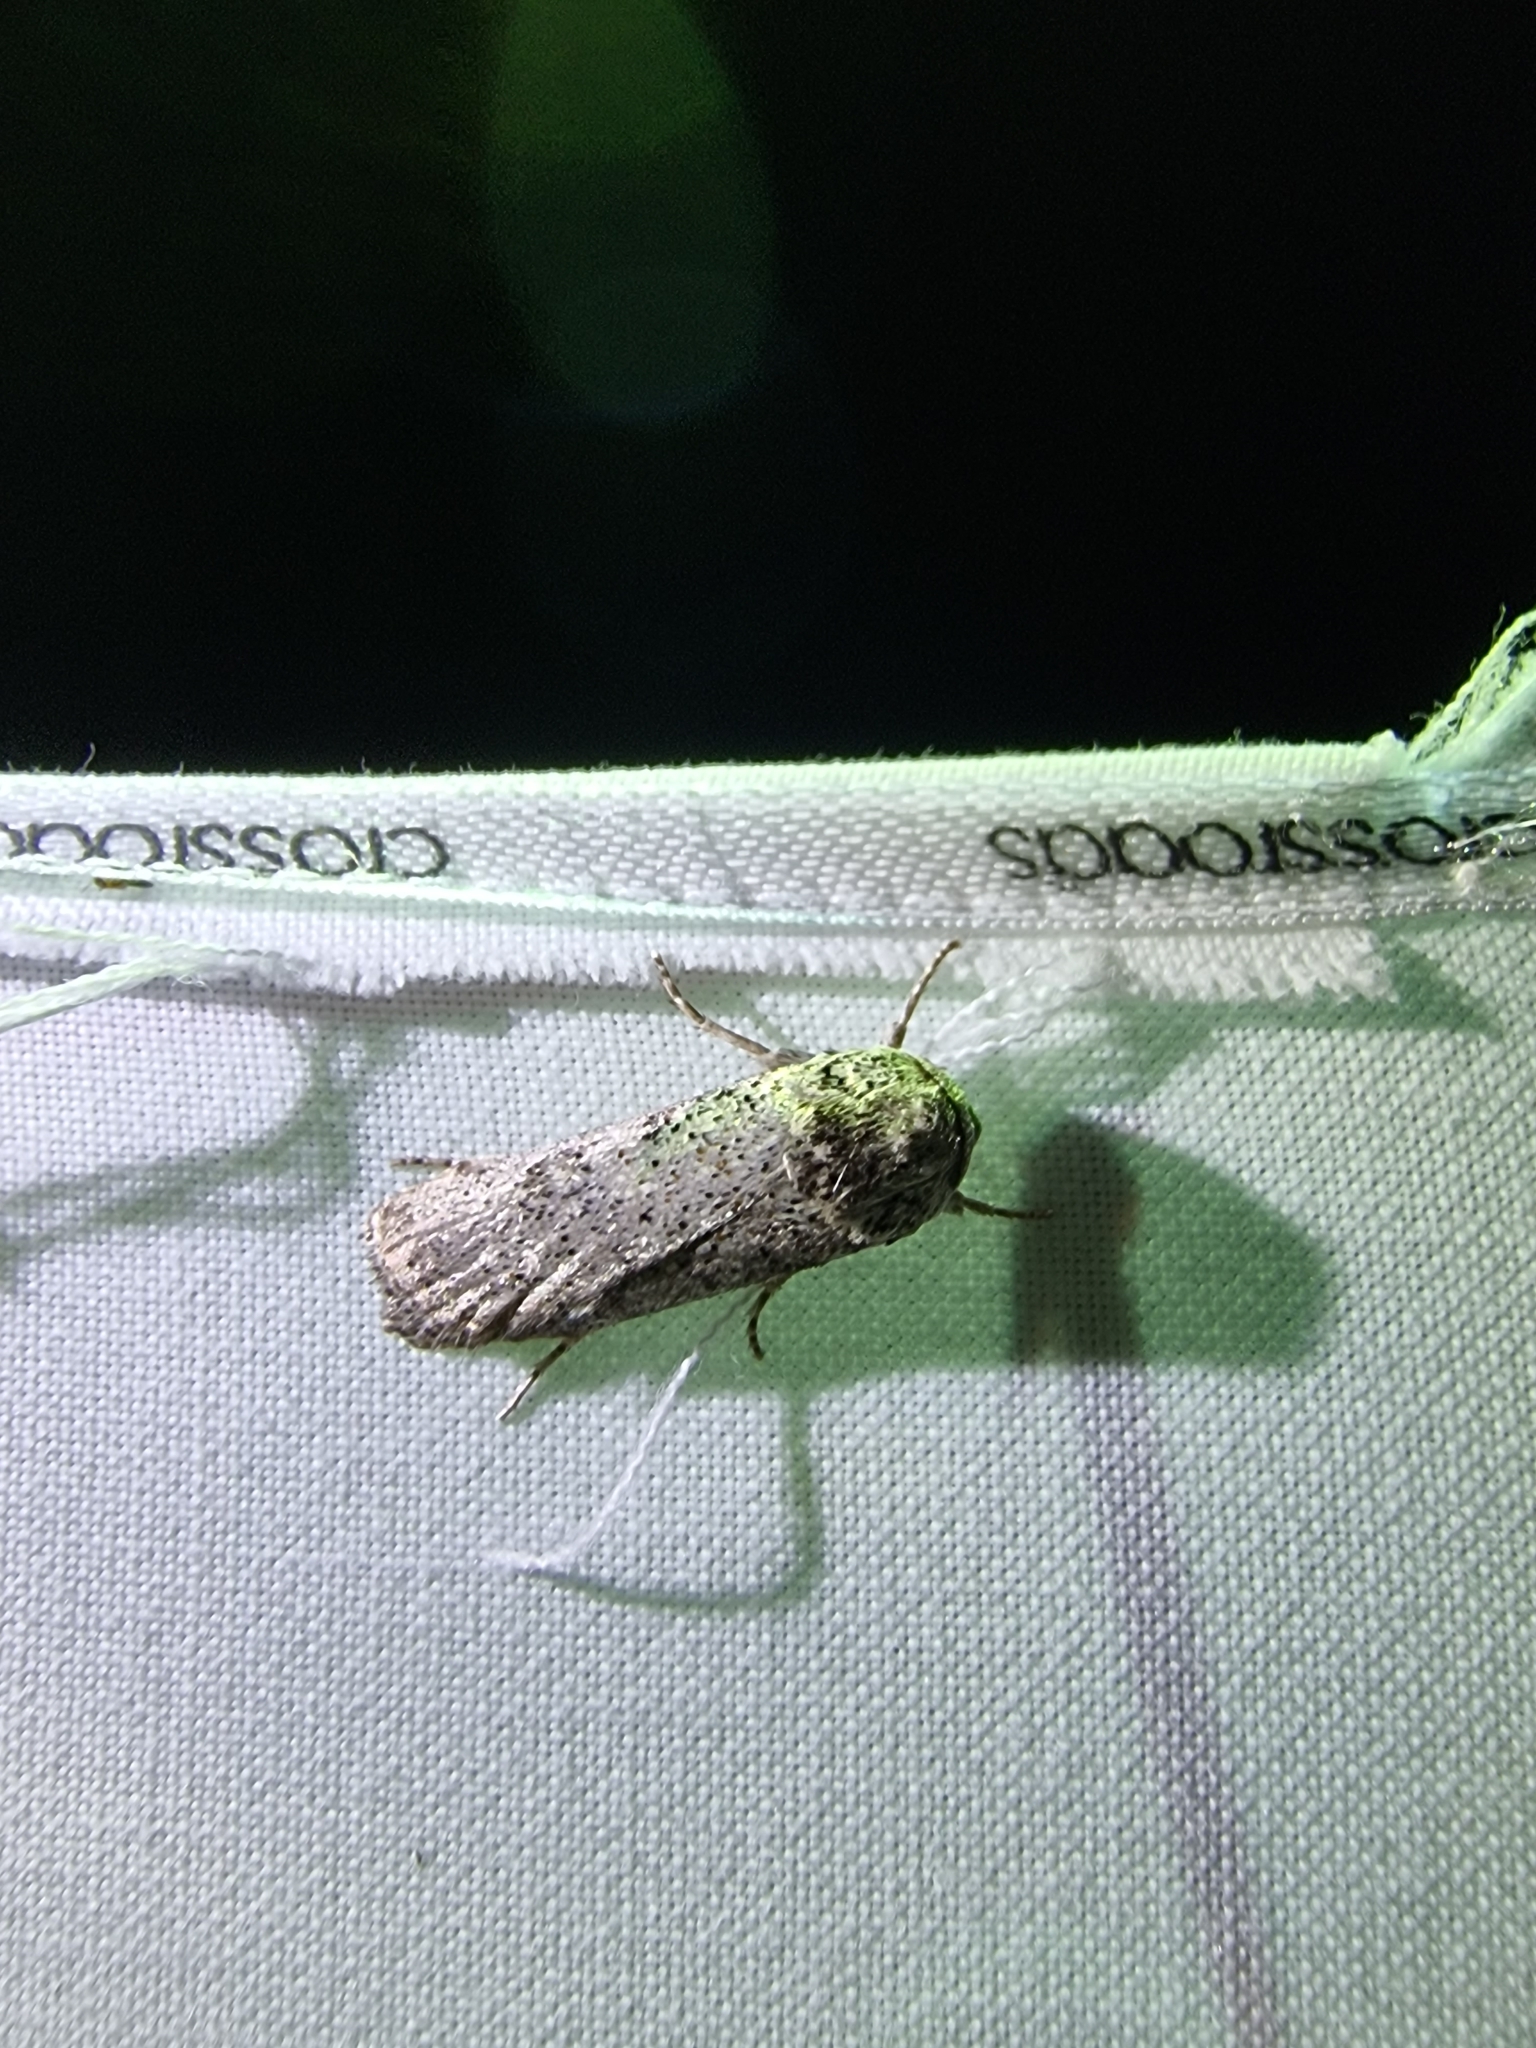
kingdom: Animalia
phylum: Arthropoda
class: Insecta
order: Lepidoptera
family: Xyloryctidae
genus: Cryptophasa
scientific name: Cryptophasa irrorata
